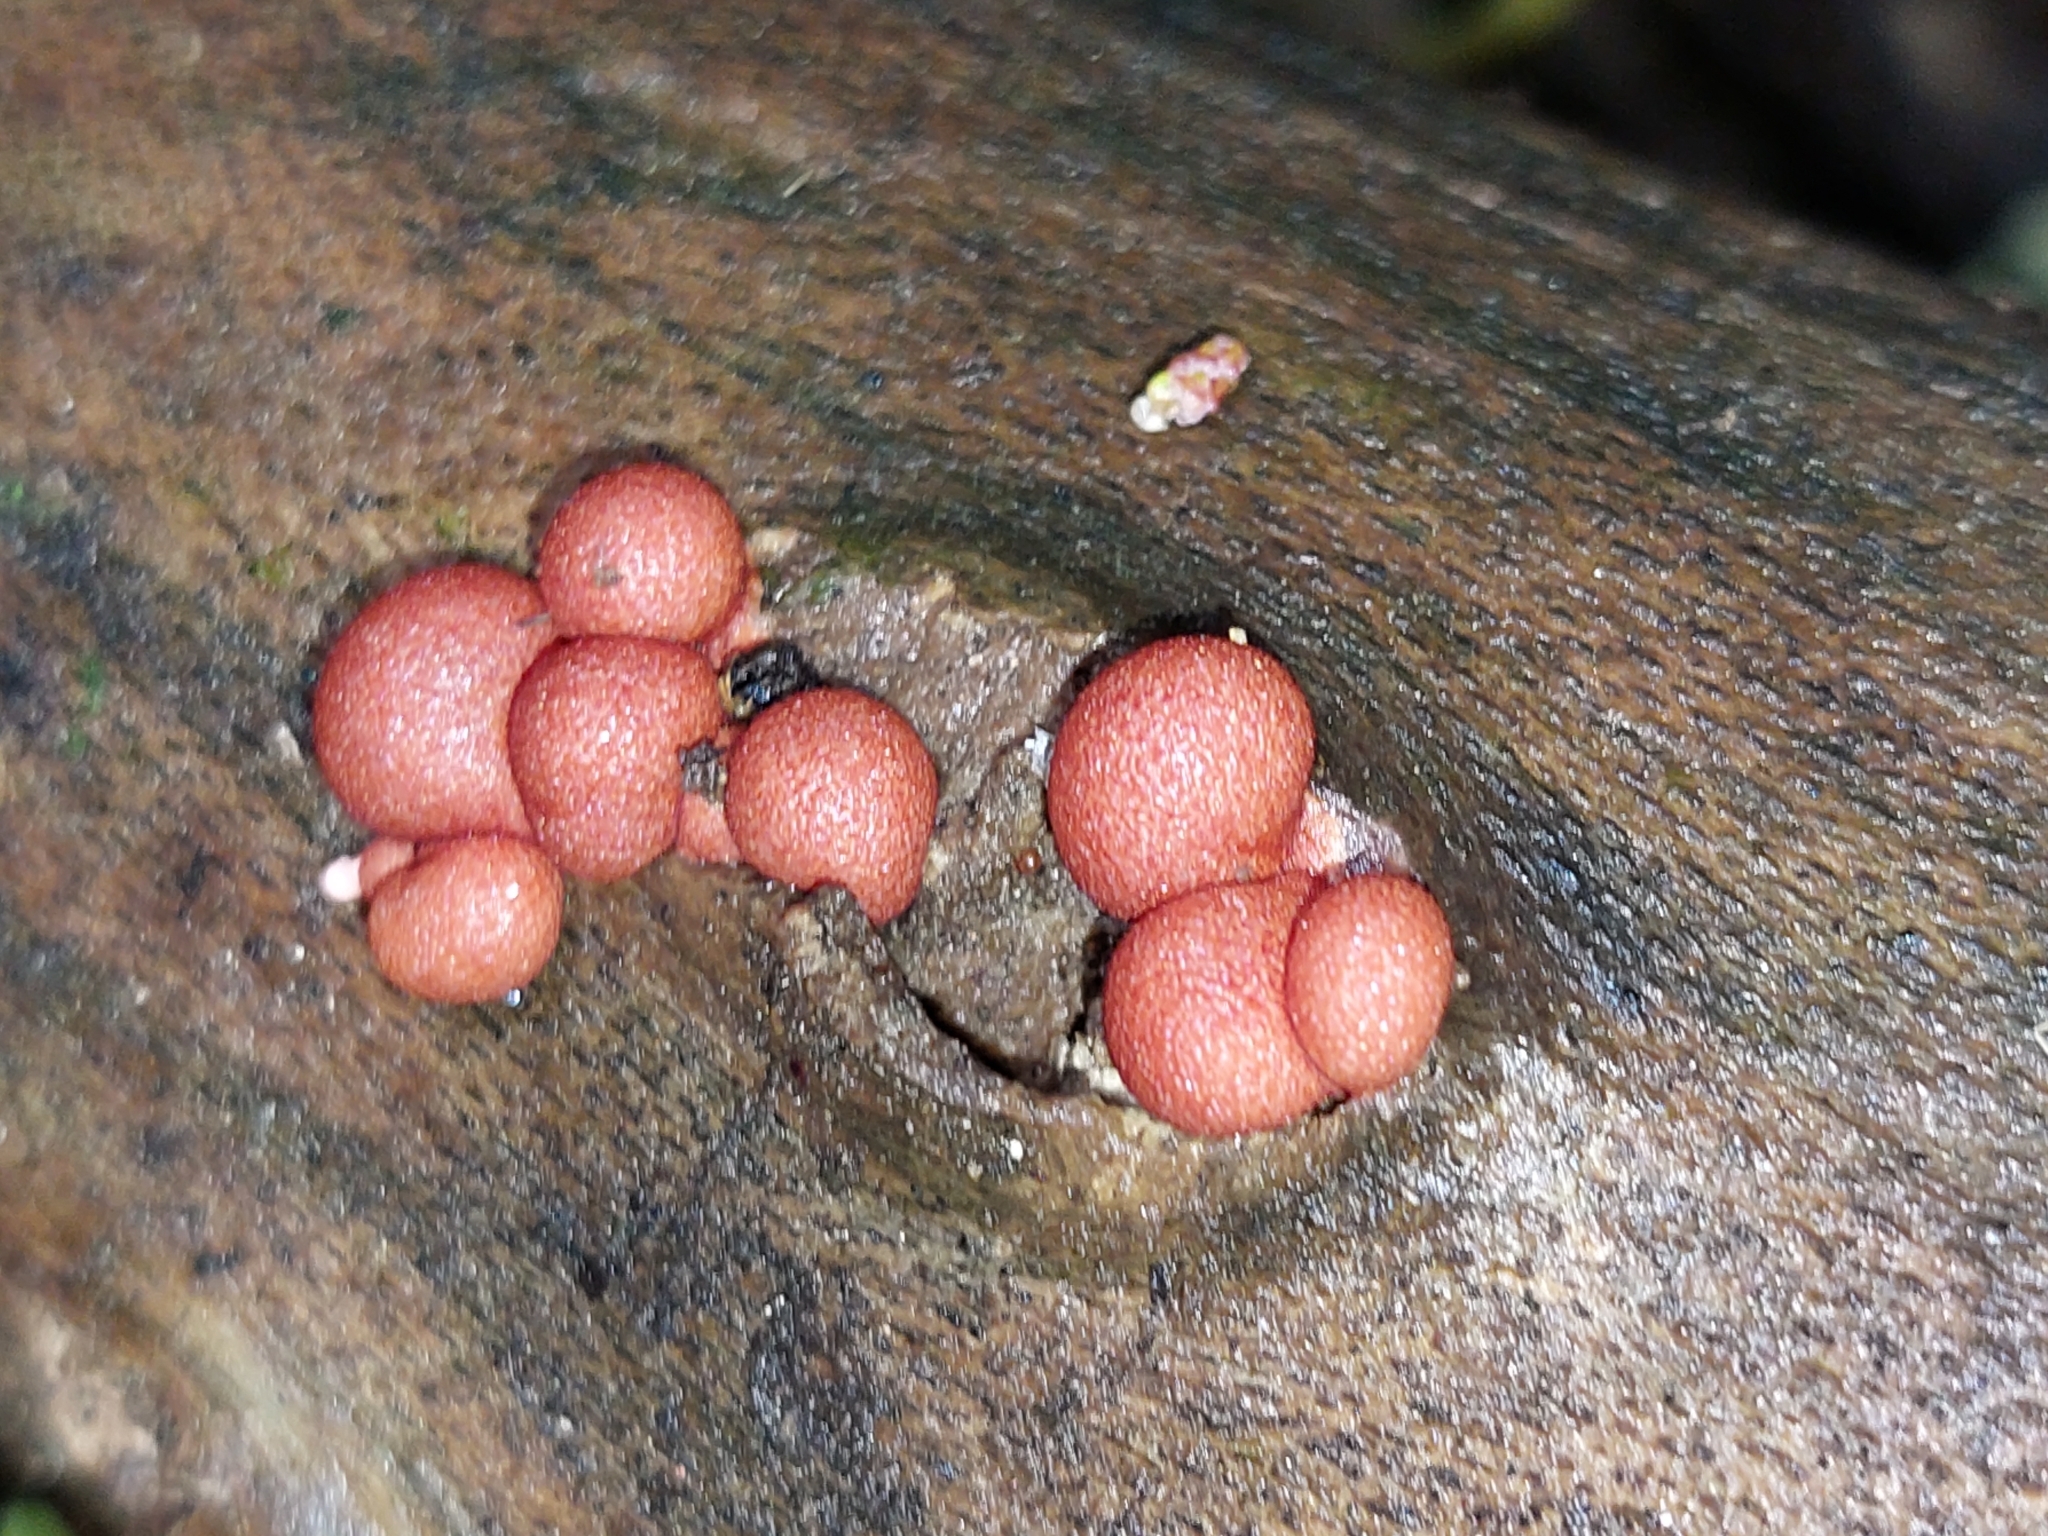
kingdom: Protozoa
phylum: Mycetozoa
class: Myxomycetes
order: Cribrariales
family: Tubiferaceae
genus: Lycogala
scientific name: Lycogala epidendrum
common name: Wolf's milk
